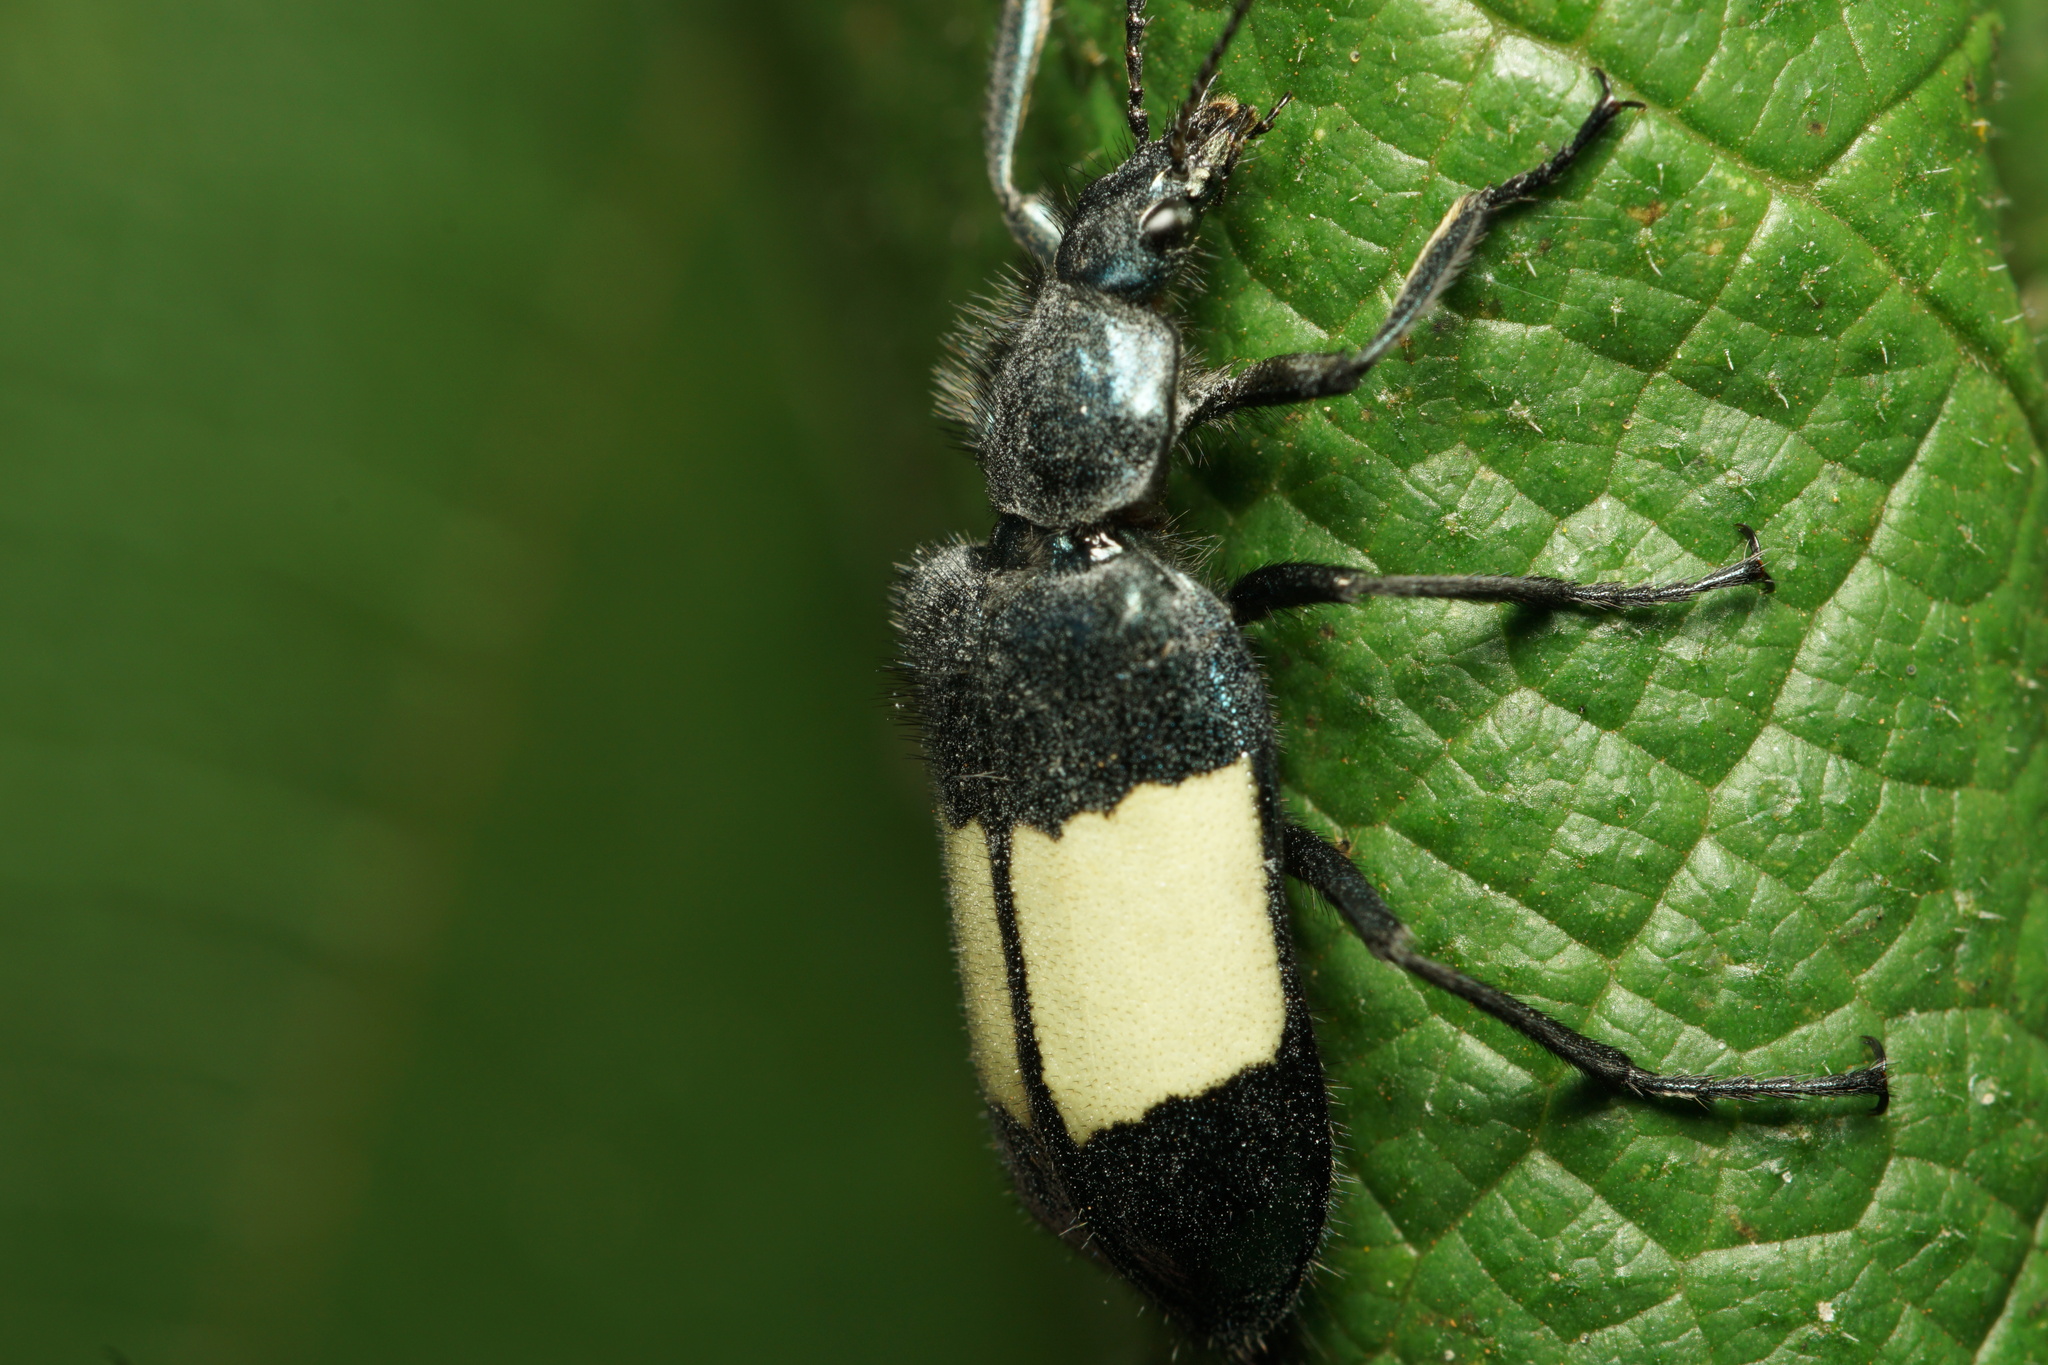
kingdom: Animalia
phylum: Arthropoda
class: Insecta
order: Coleoptera
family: Melyridae
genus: Astylus
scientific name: Astylus
